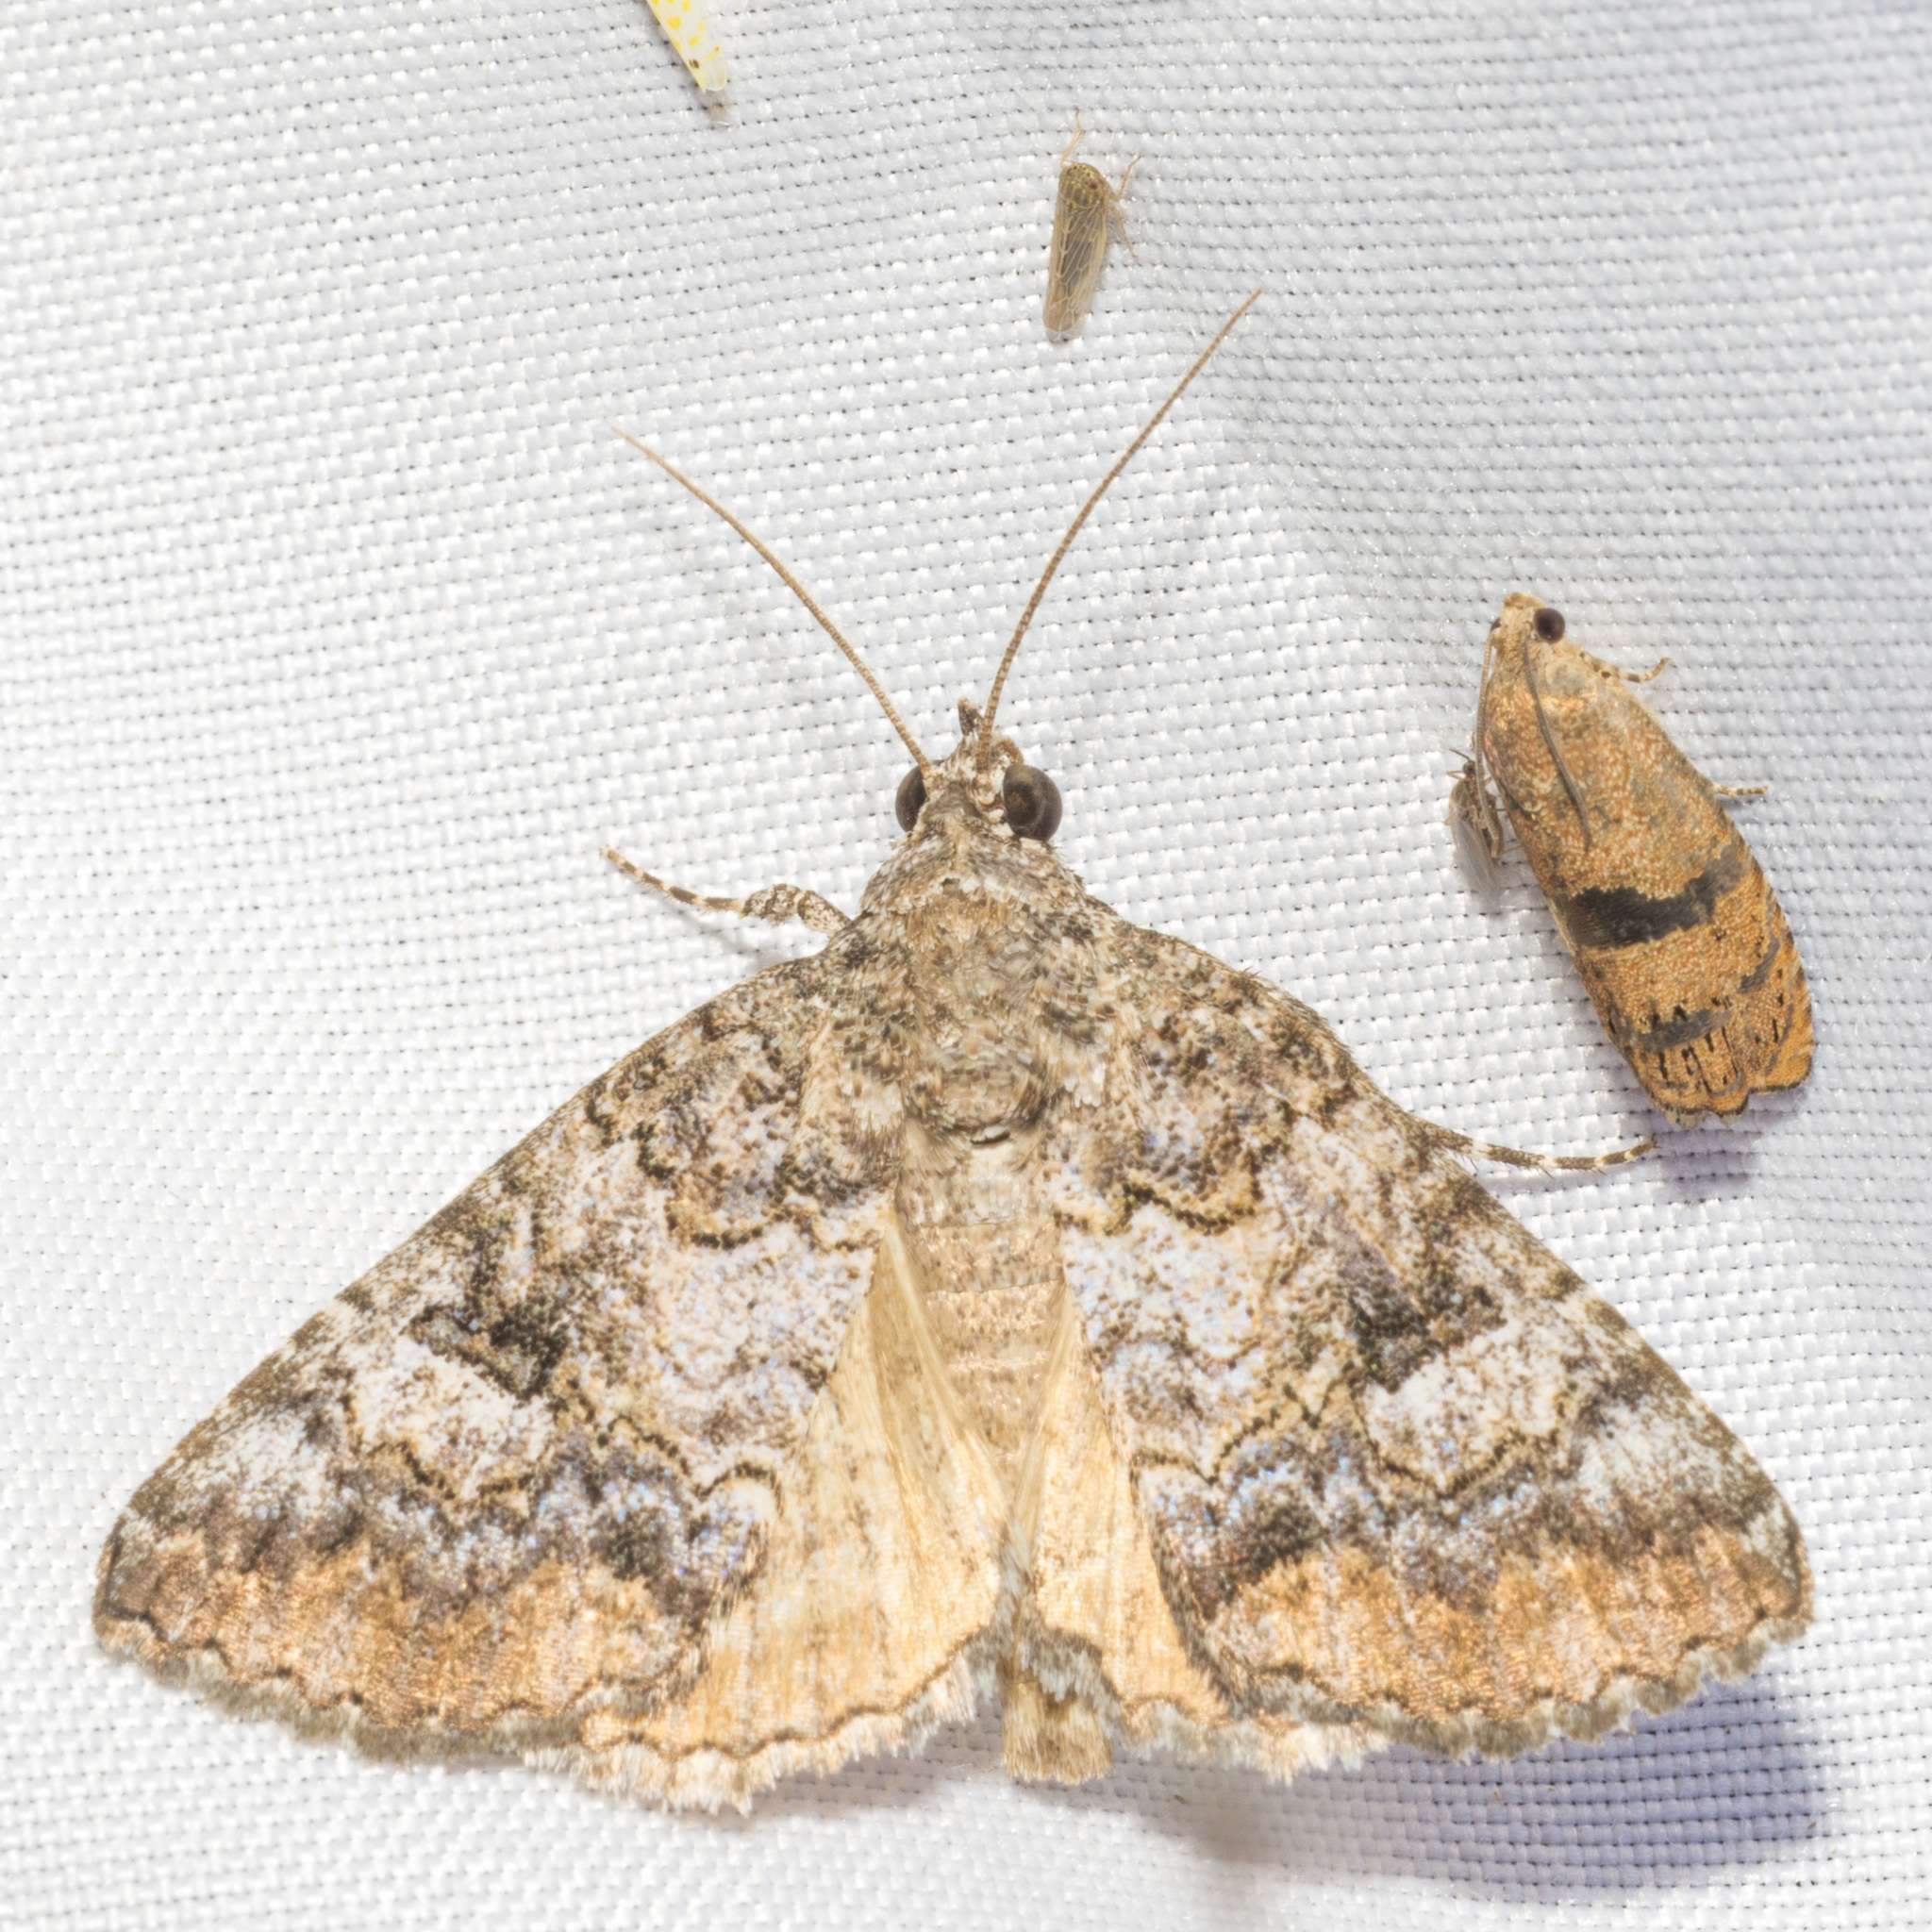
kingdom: Animalia
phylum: Arthropoda
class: Insecta
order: Lepidoptera
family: Erebidae
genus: Eubolina
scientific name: Eubolina impartialis
